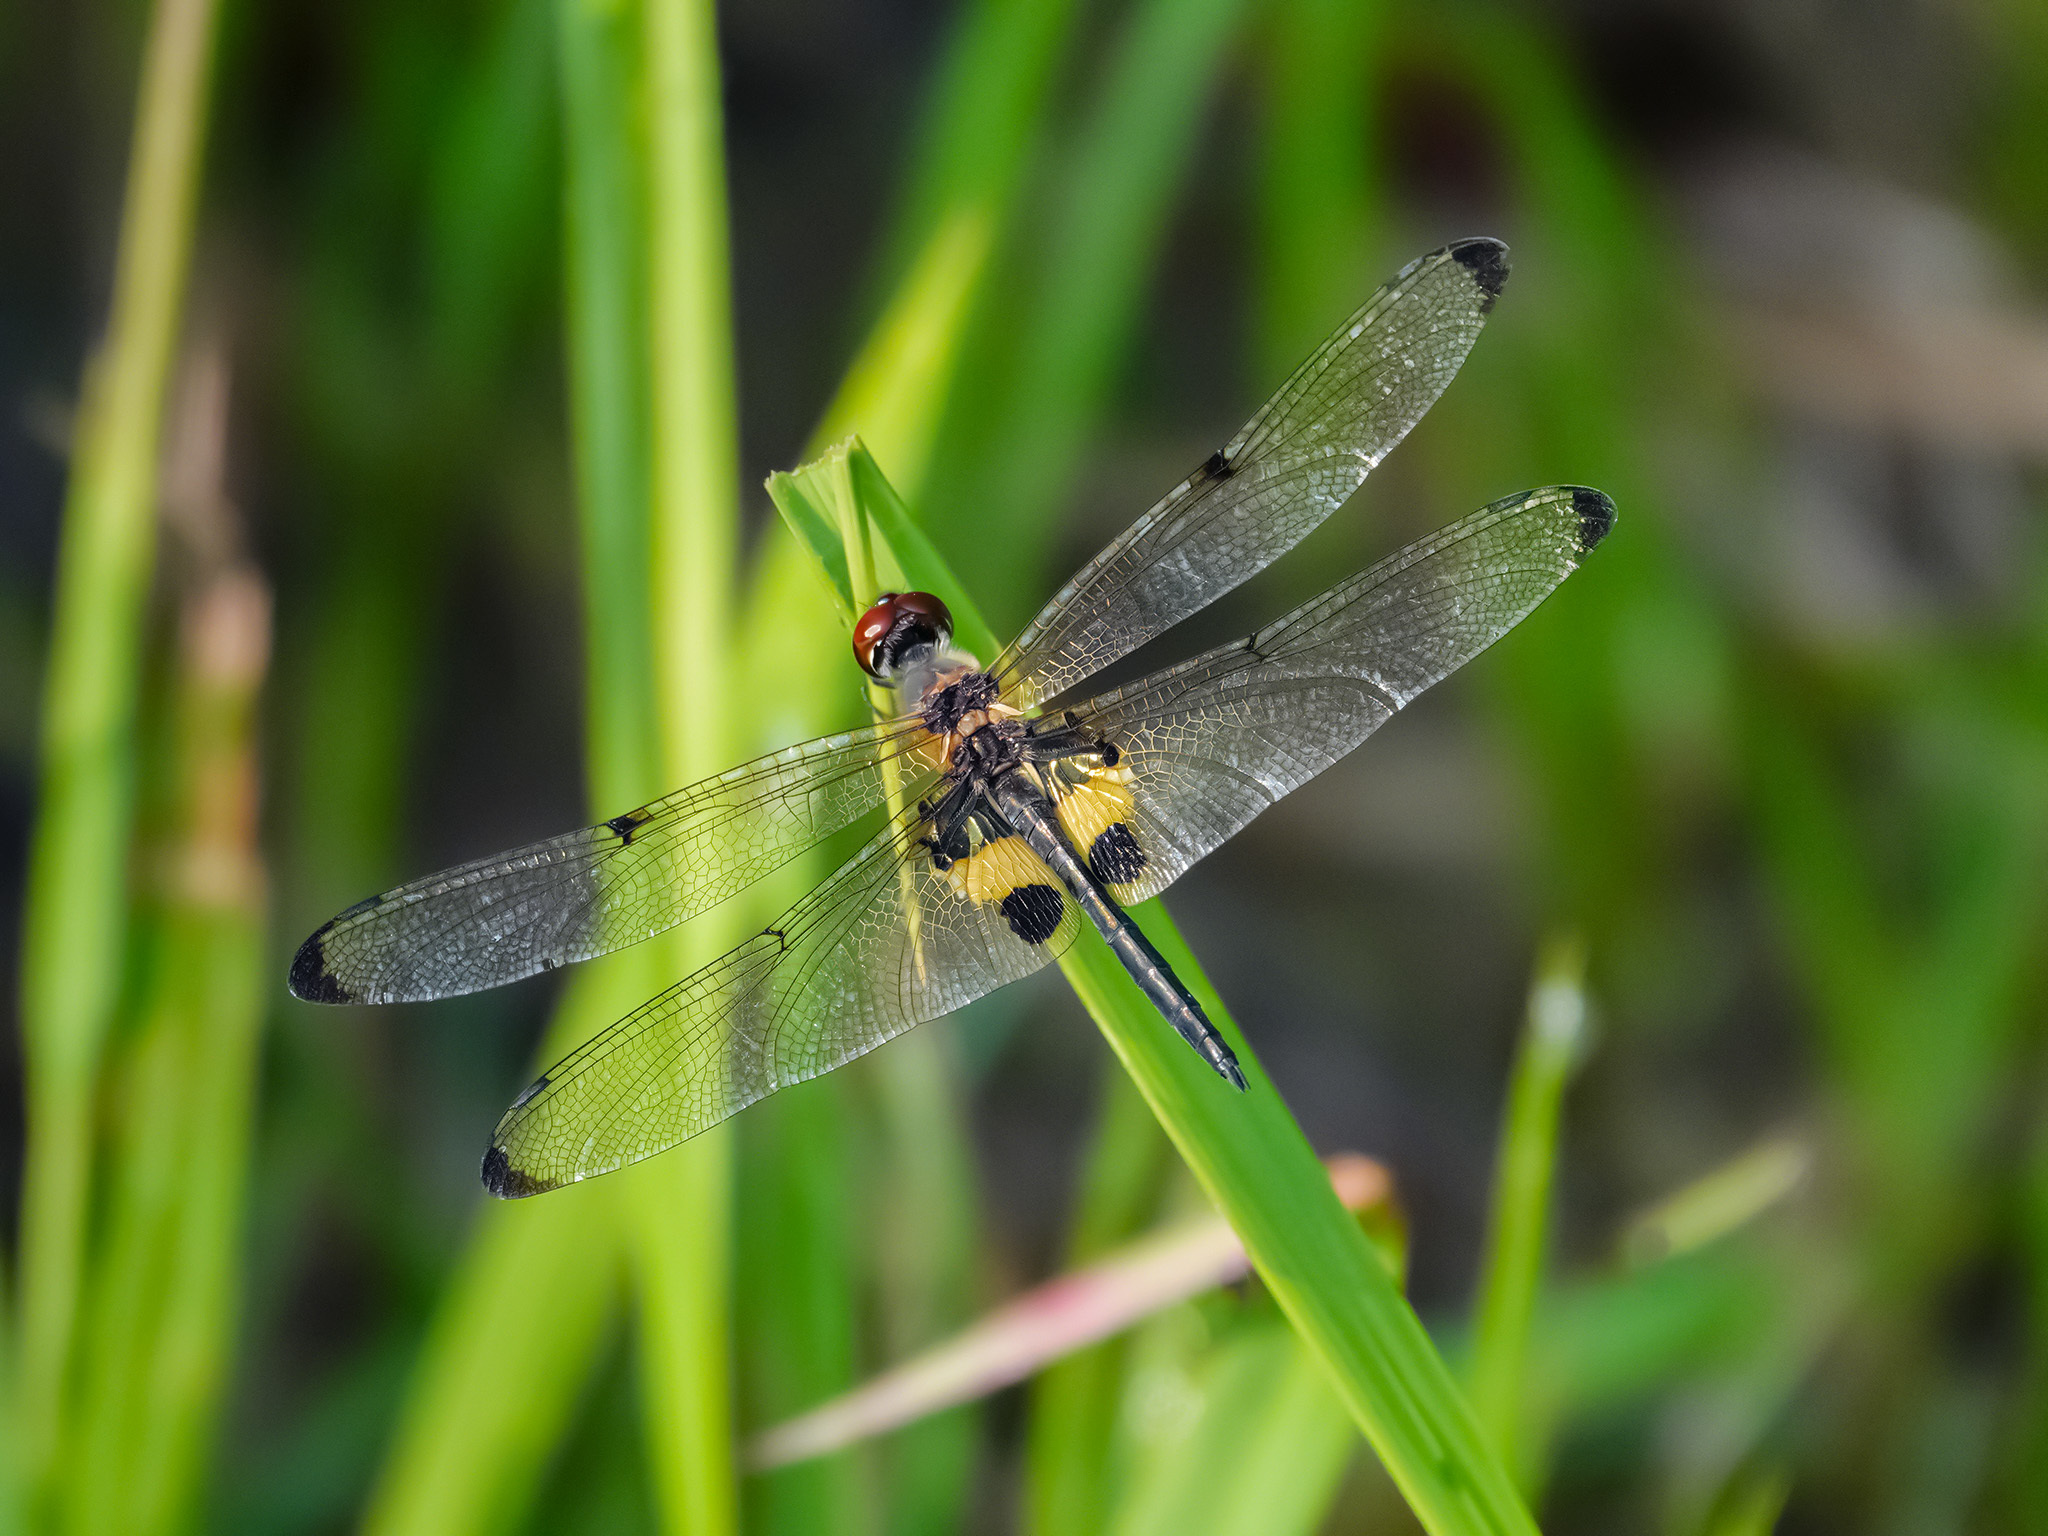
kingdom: Animalia
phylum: Arthropoda
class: Insecta
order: Odonata
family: Libellulidae
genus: Rhyothemis
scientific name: Rhyothemis phyllis
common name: Yellow-barred flutterer
